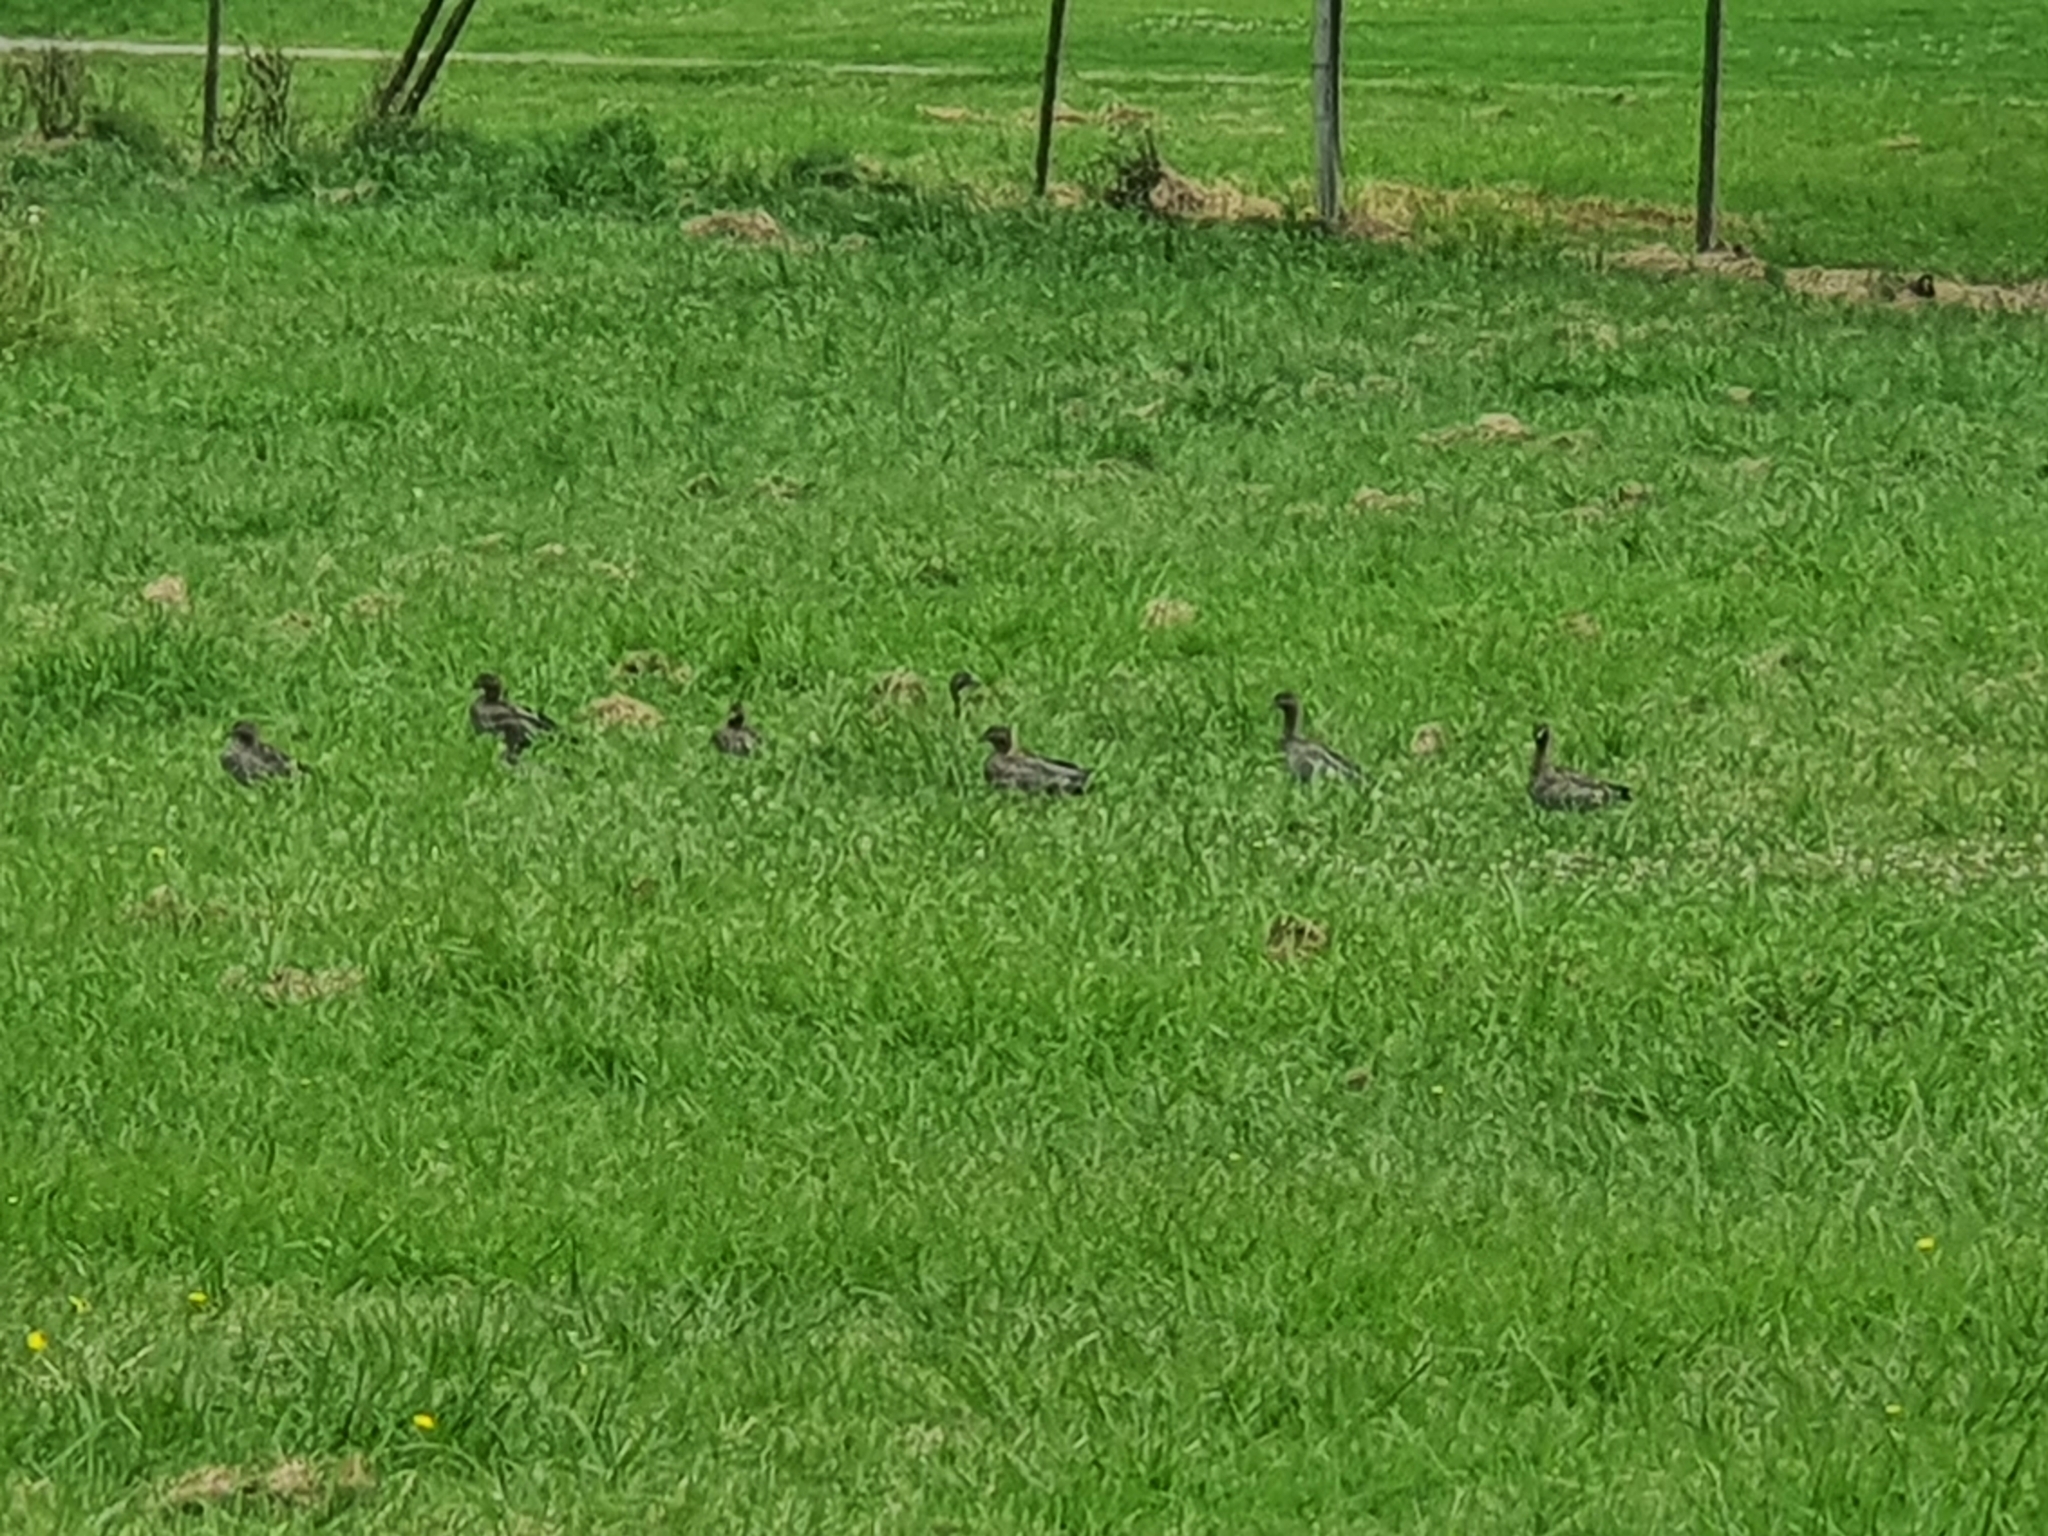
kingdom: Animalia
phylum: Chordata
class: Aves
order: Anseriformes
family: Anatidae
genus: Chenonetta
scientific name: Chenonetta jubata
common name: Maned duck
